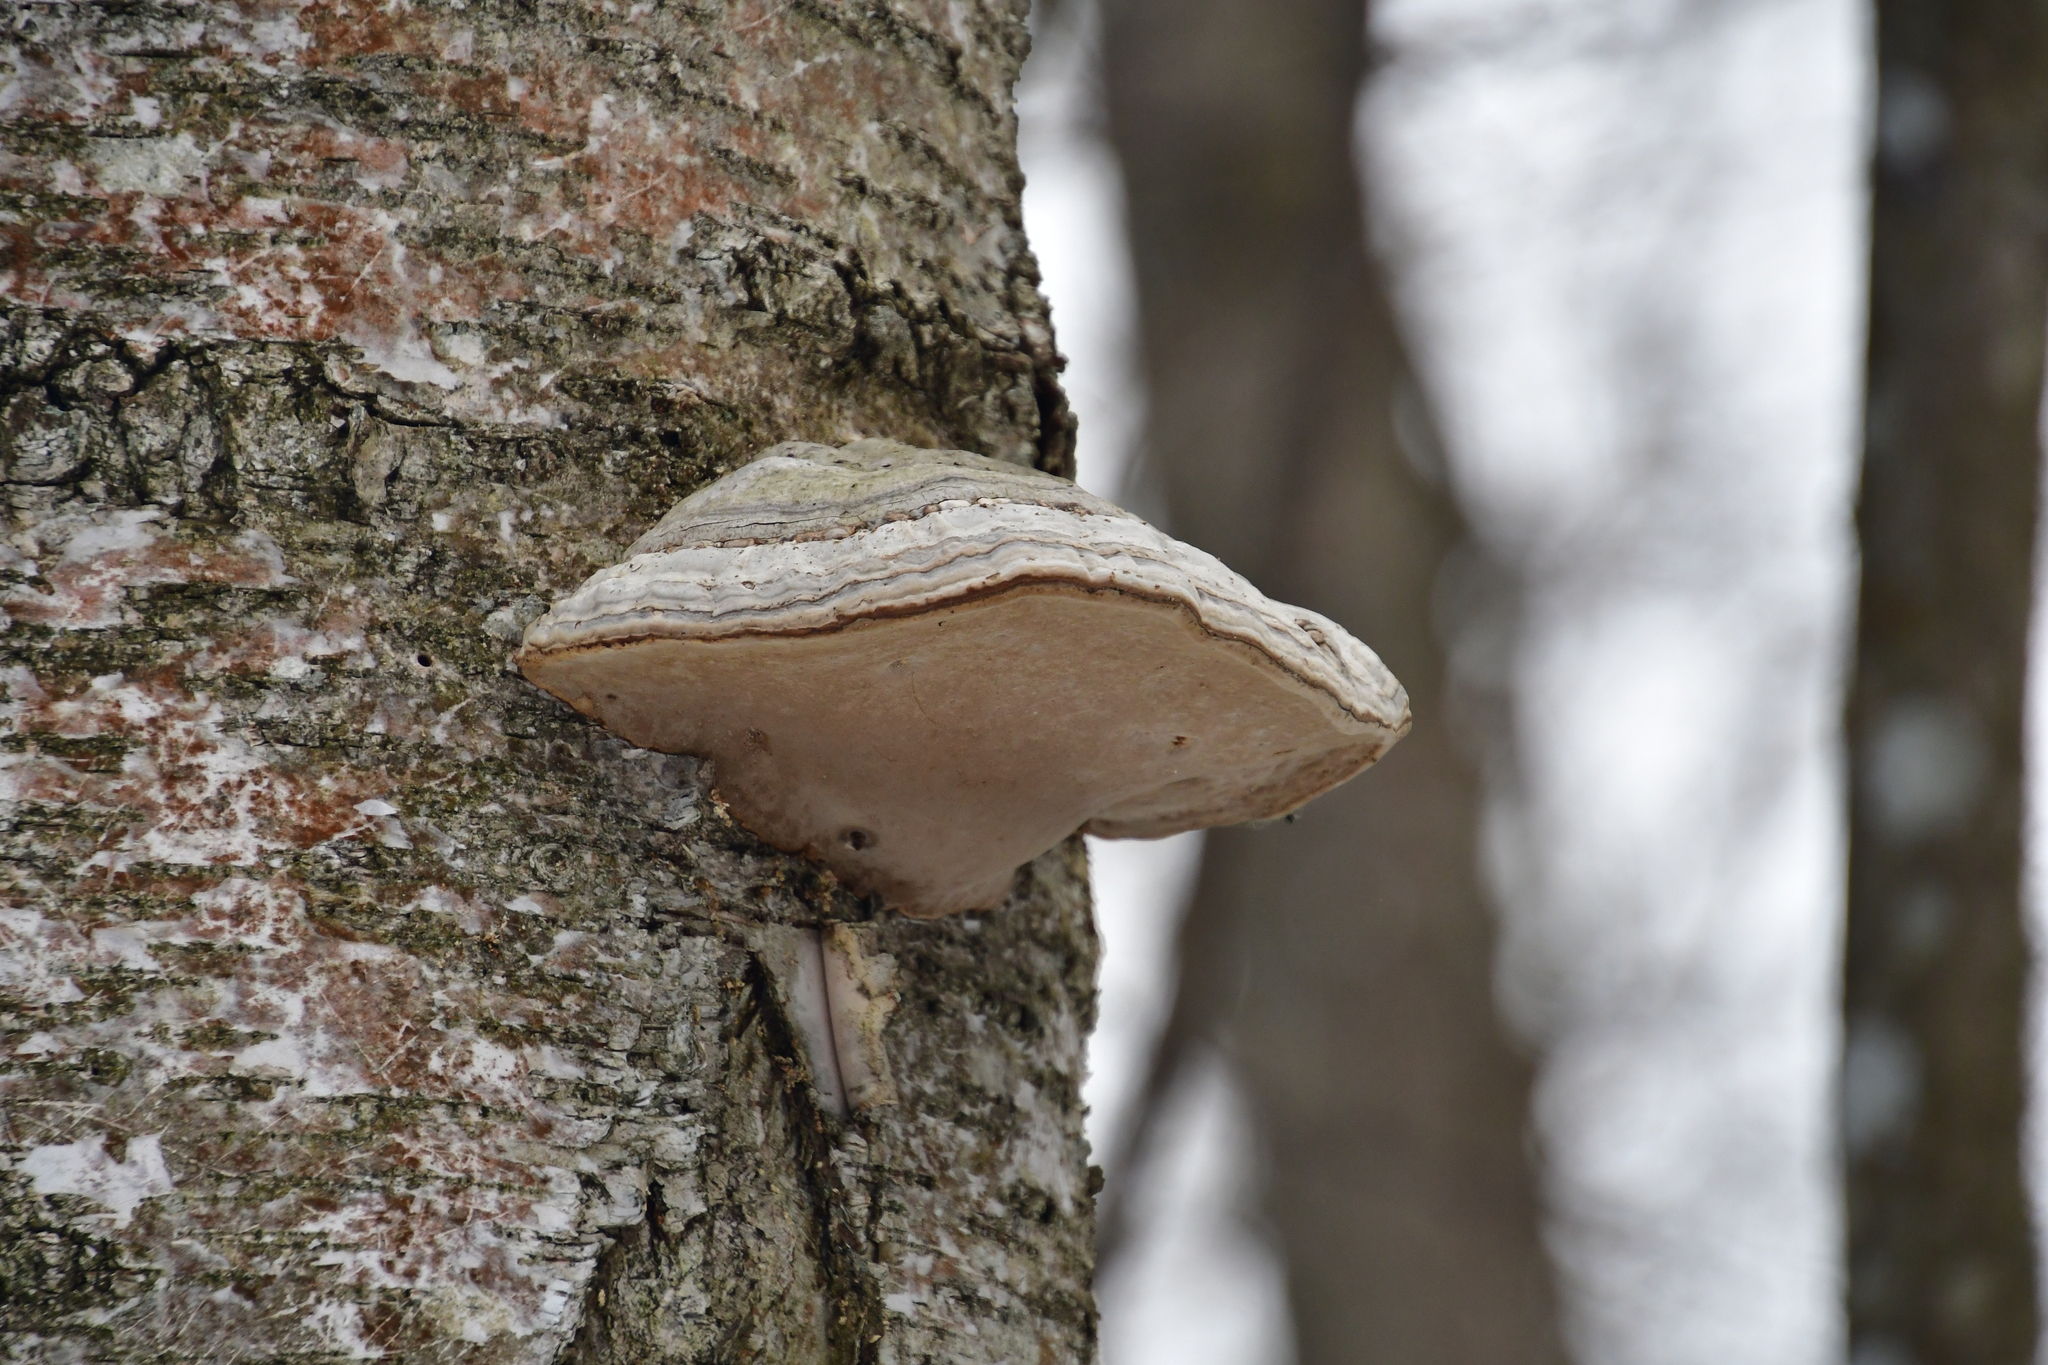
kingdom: Fungi
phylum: Basidiomycota
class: Agaricomycetes
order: Polyporales
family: Polyporaceae
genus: Fomes
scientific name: Fomes fomentarius
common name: Hoof fungus
